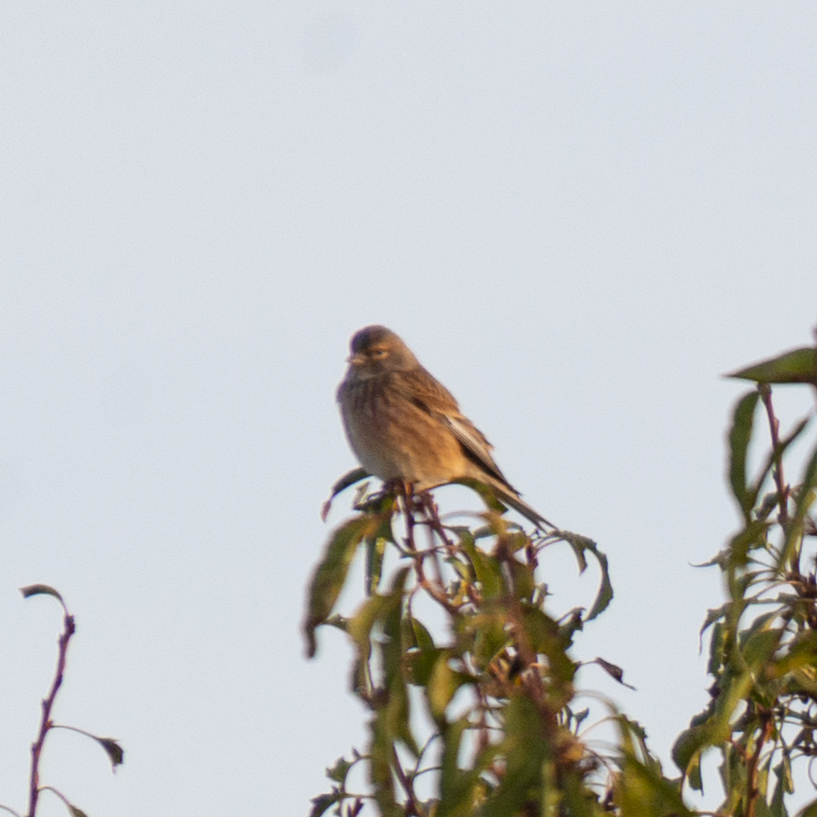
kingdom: Animalia
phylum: Chordata
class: Aves
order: Passeriformes
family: Fringillidae
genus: Linaria
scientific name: Linaria cannabina
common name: Common linnet
